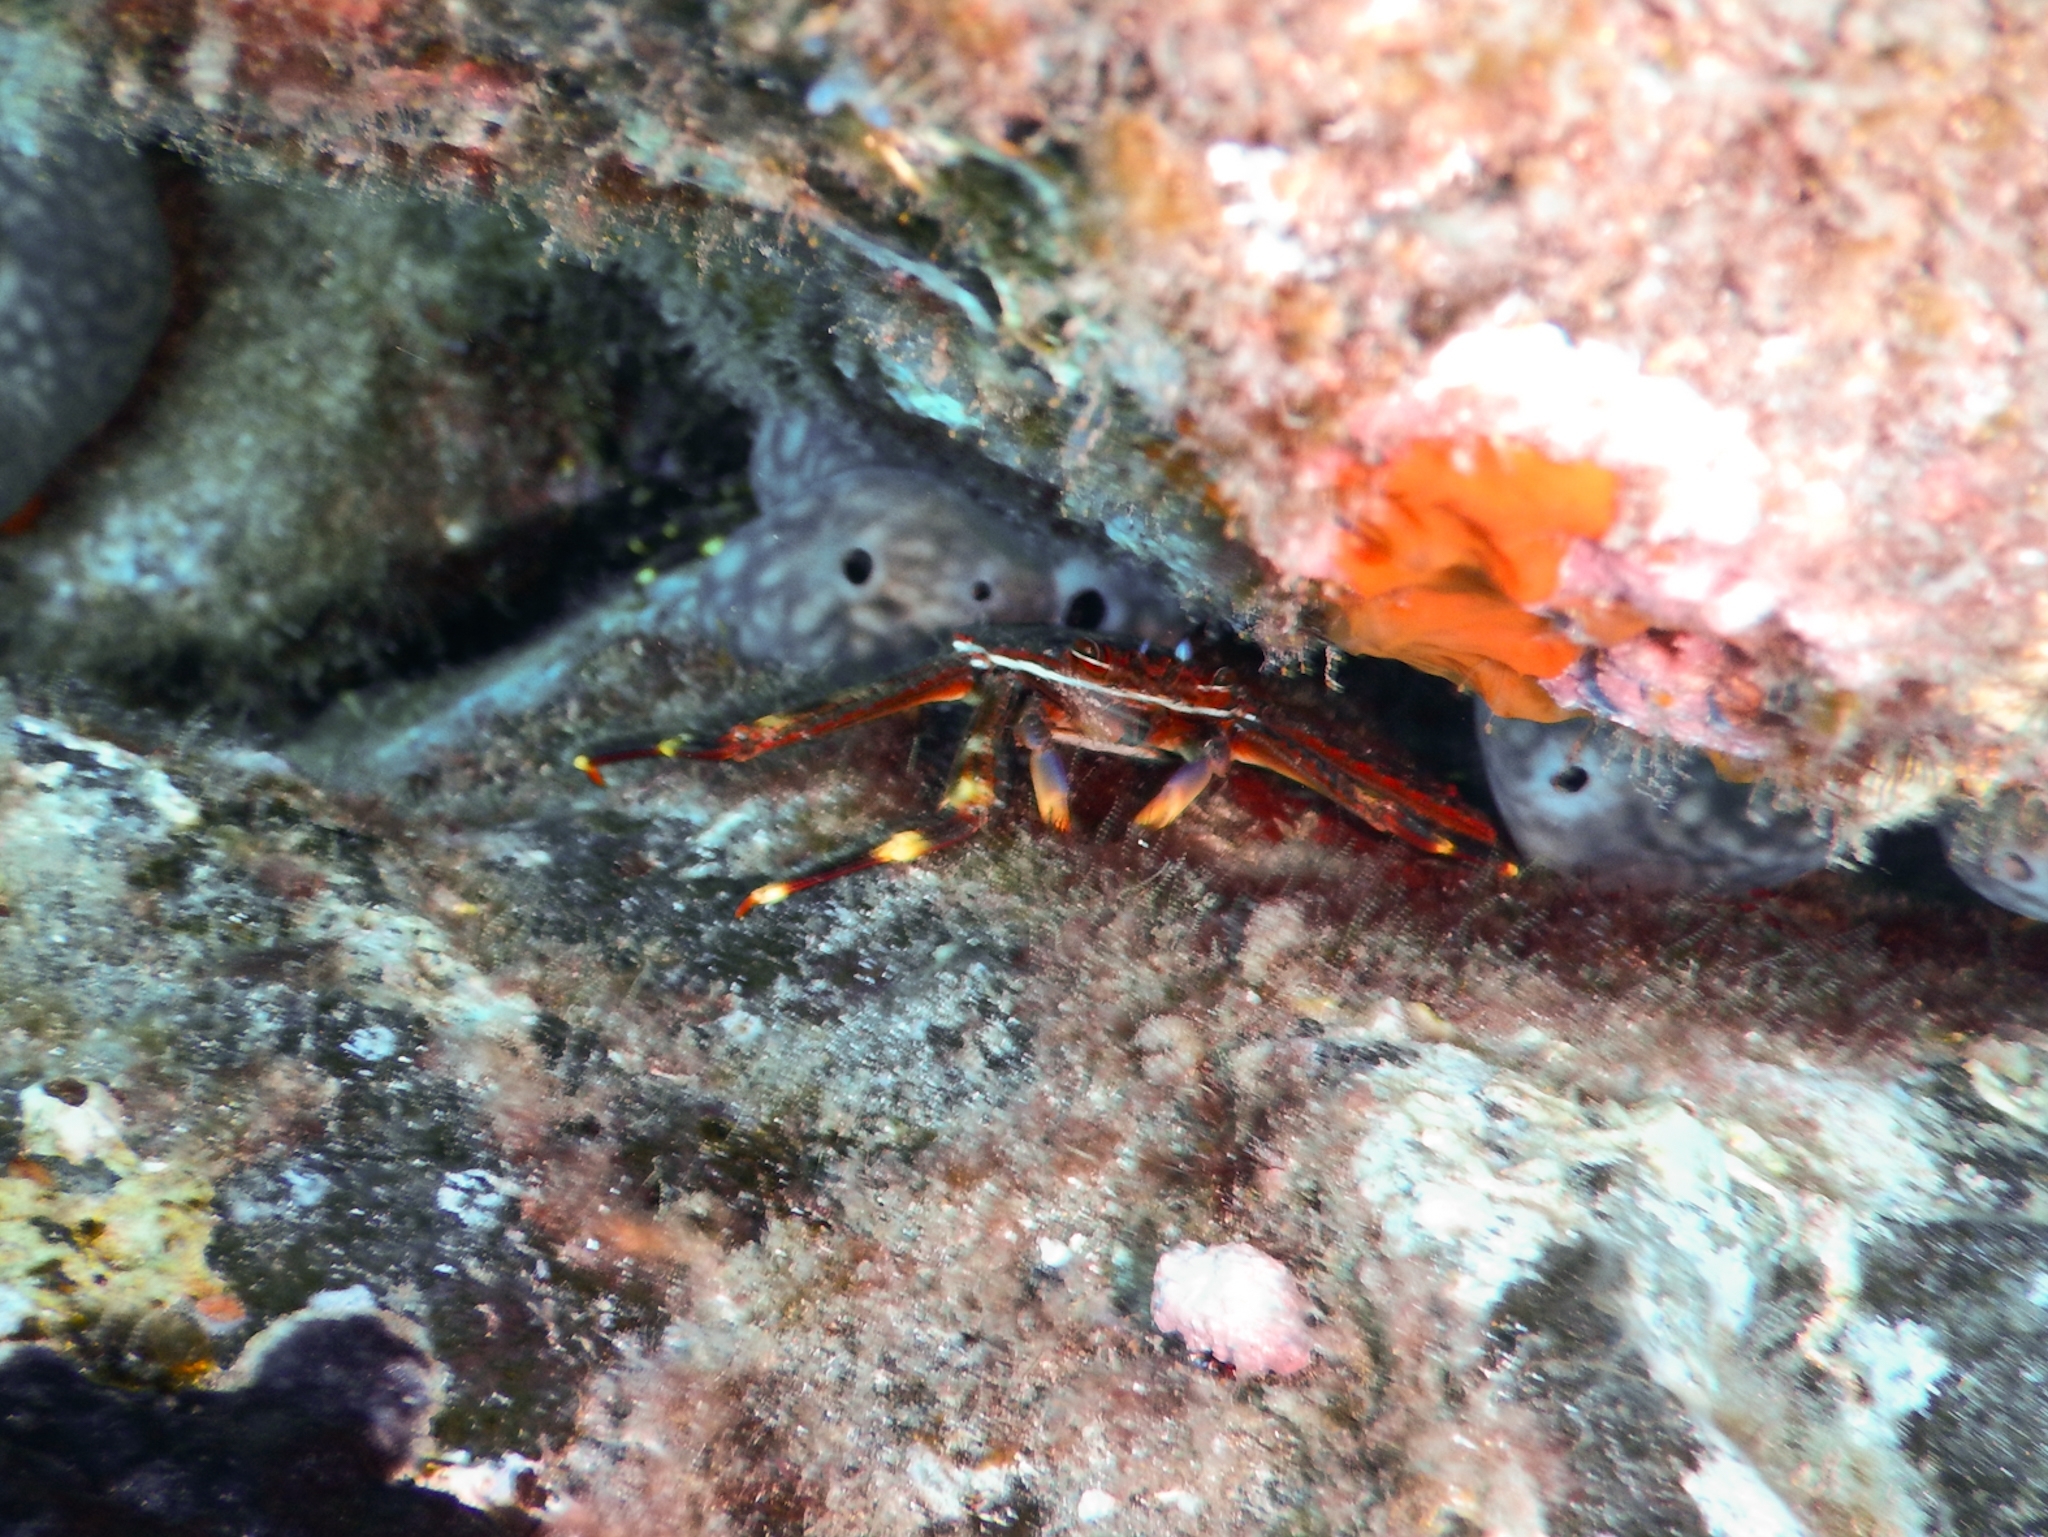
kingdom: Animalia
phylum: Arthropoda
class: Malacostraca
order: Decapoda
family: Percnidae
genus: Percnon
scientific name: Percnon gibbesi
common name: Nimble spray crab
